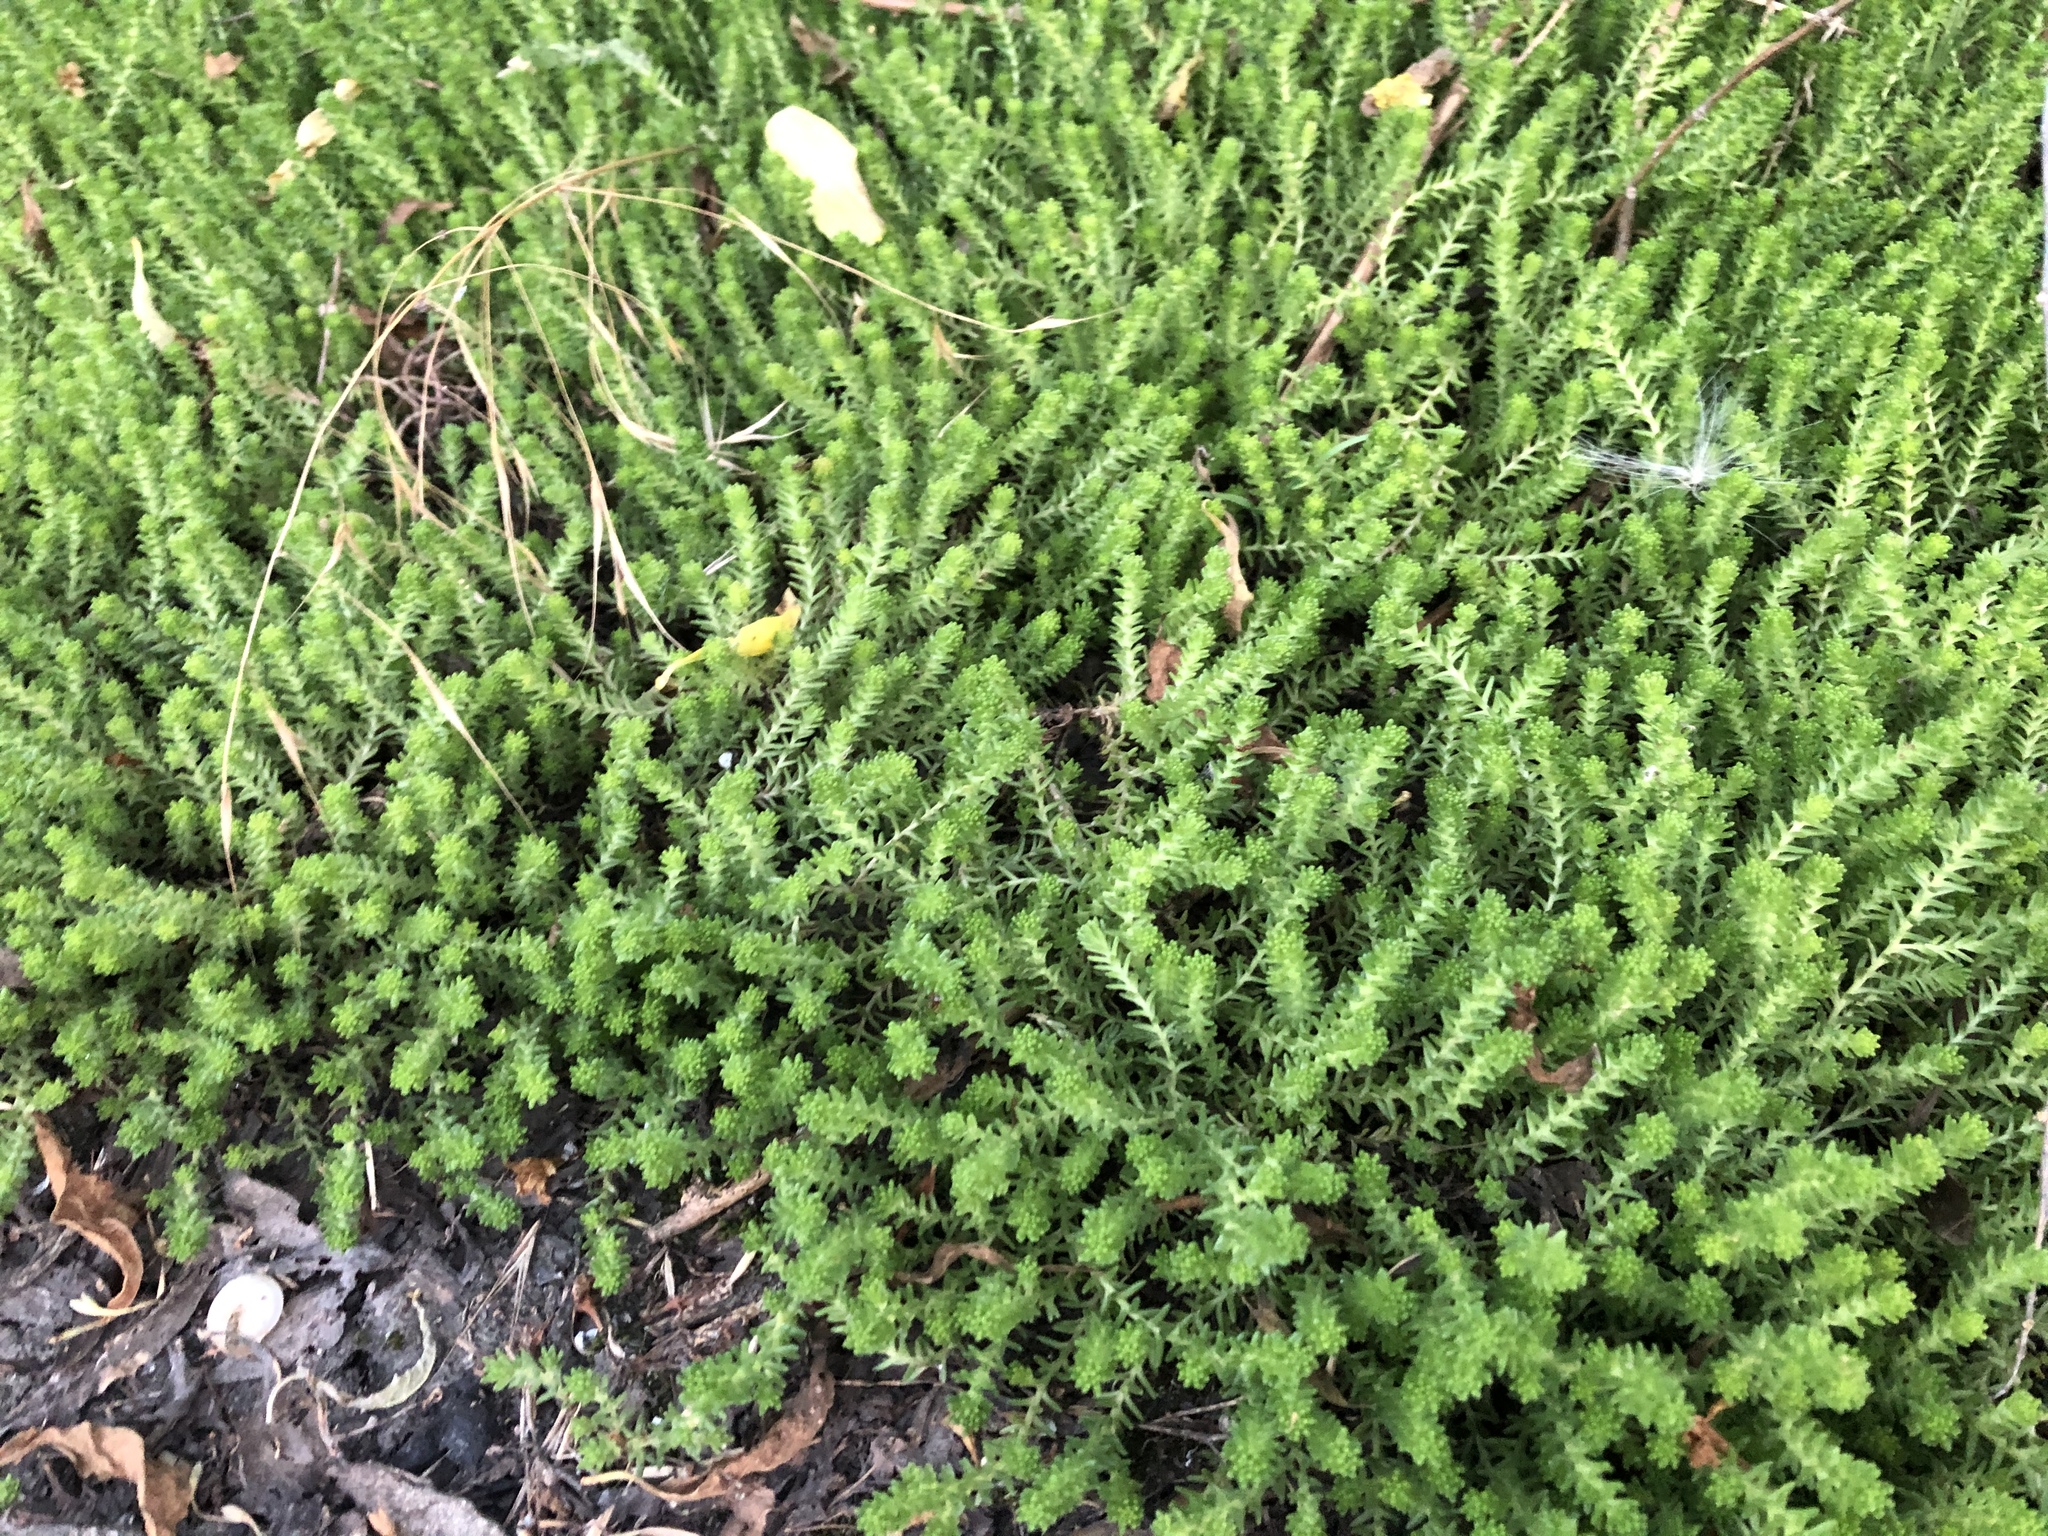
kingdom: Plantae
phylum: Tracheophyta
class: Magnoliopsida
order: Saxifragales
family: Crassulaceae
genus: Sedum
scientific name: Sedum sexangulare
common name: Tasteless stonecrop
